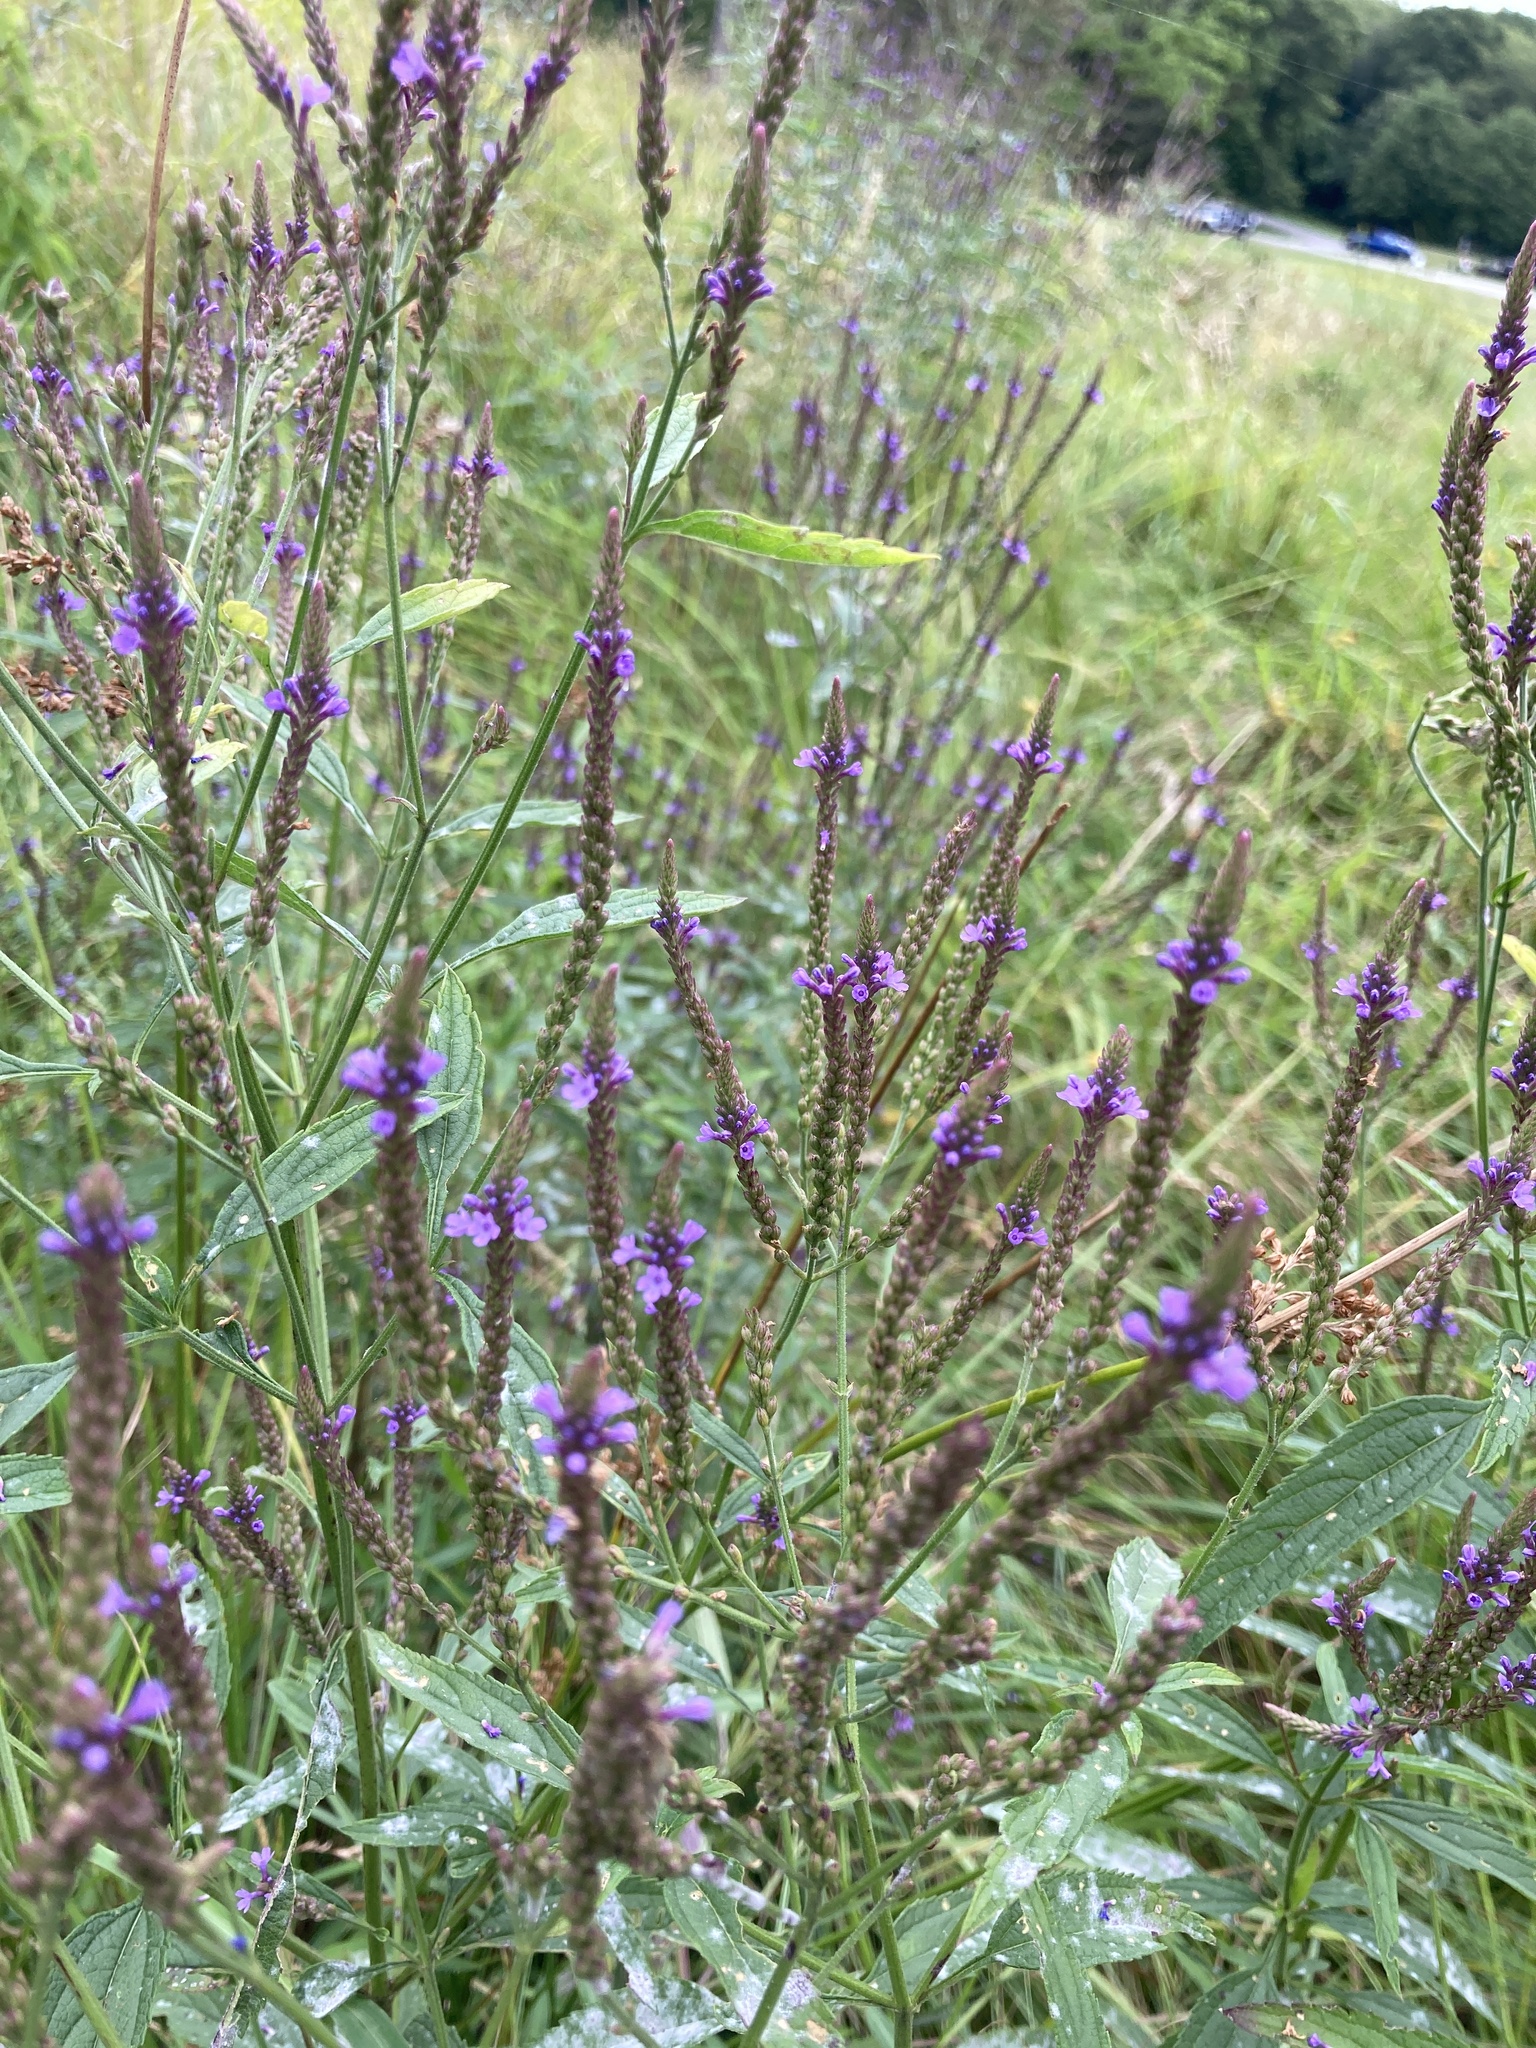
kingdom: Plantae
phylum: Tracheophyta
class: Magnoliopsida
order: Lamiales
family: Verbenaceae
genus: Verbena
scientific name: Verbena hastata
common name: American blue vervain
